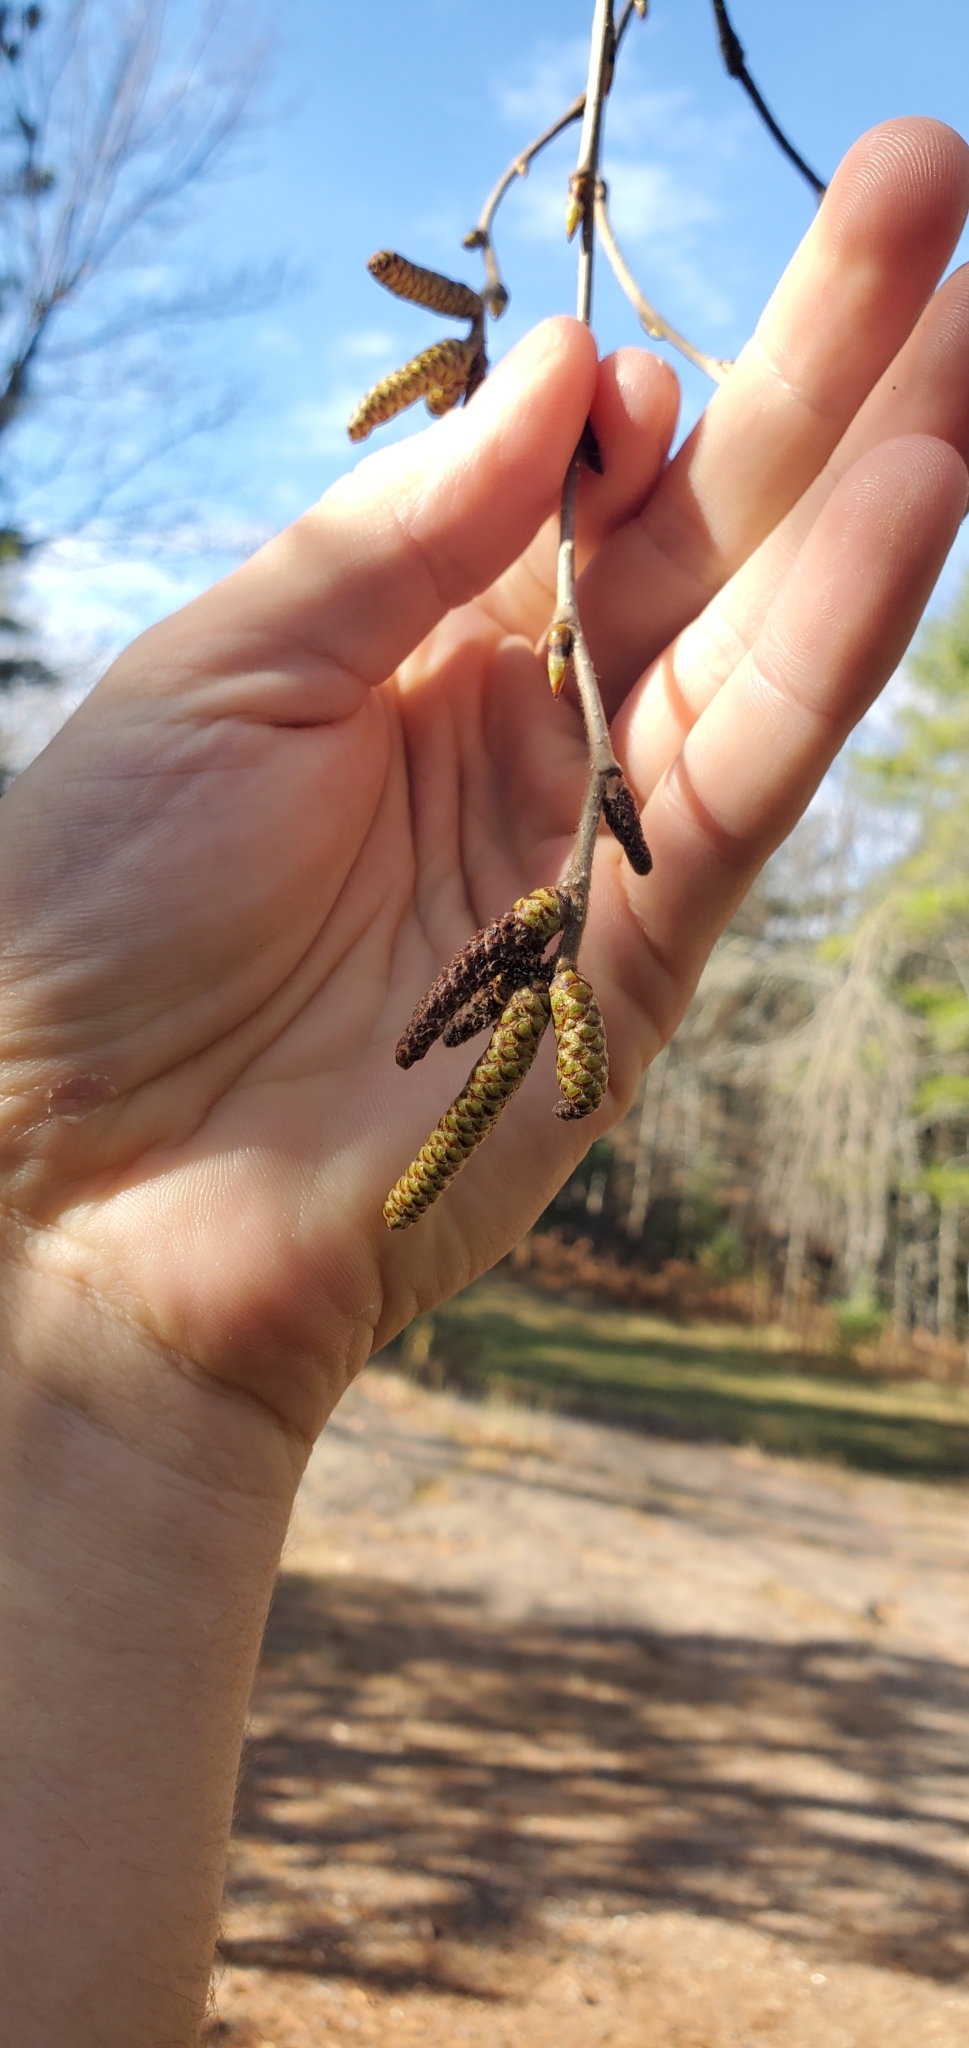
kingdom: Plantae
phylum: Tracheophyta
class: Magnoliopsida
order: Fagales
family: Betulaceae
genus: Betula
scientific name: Betula alleghaniensis
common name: Yellow birch
